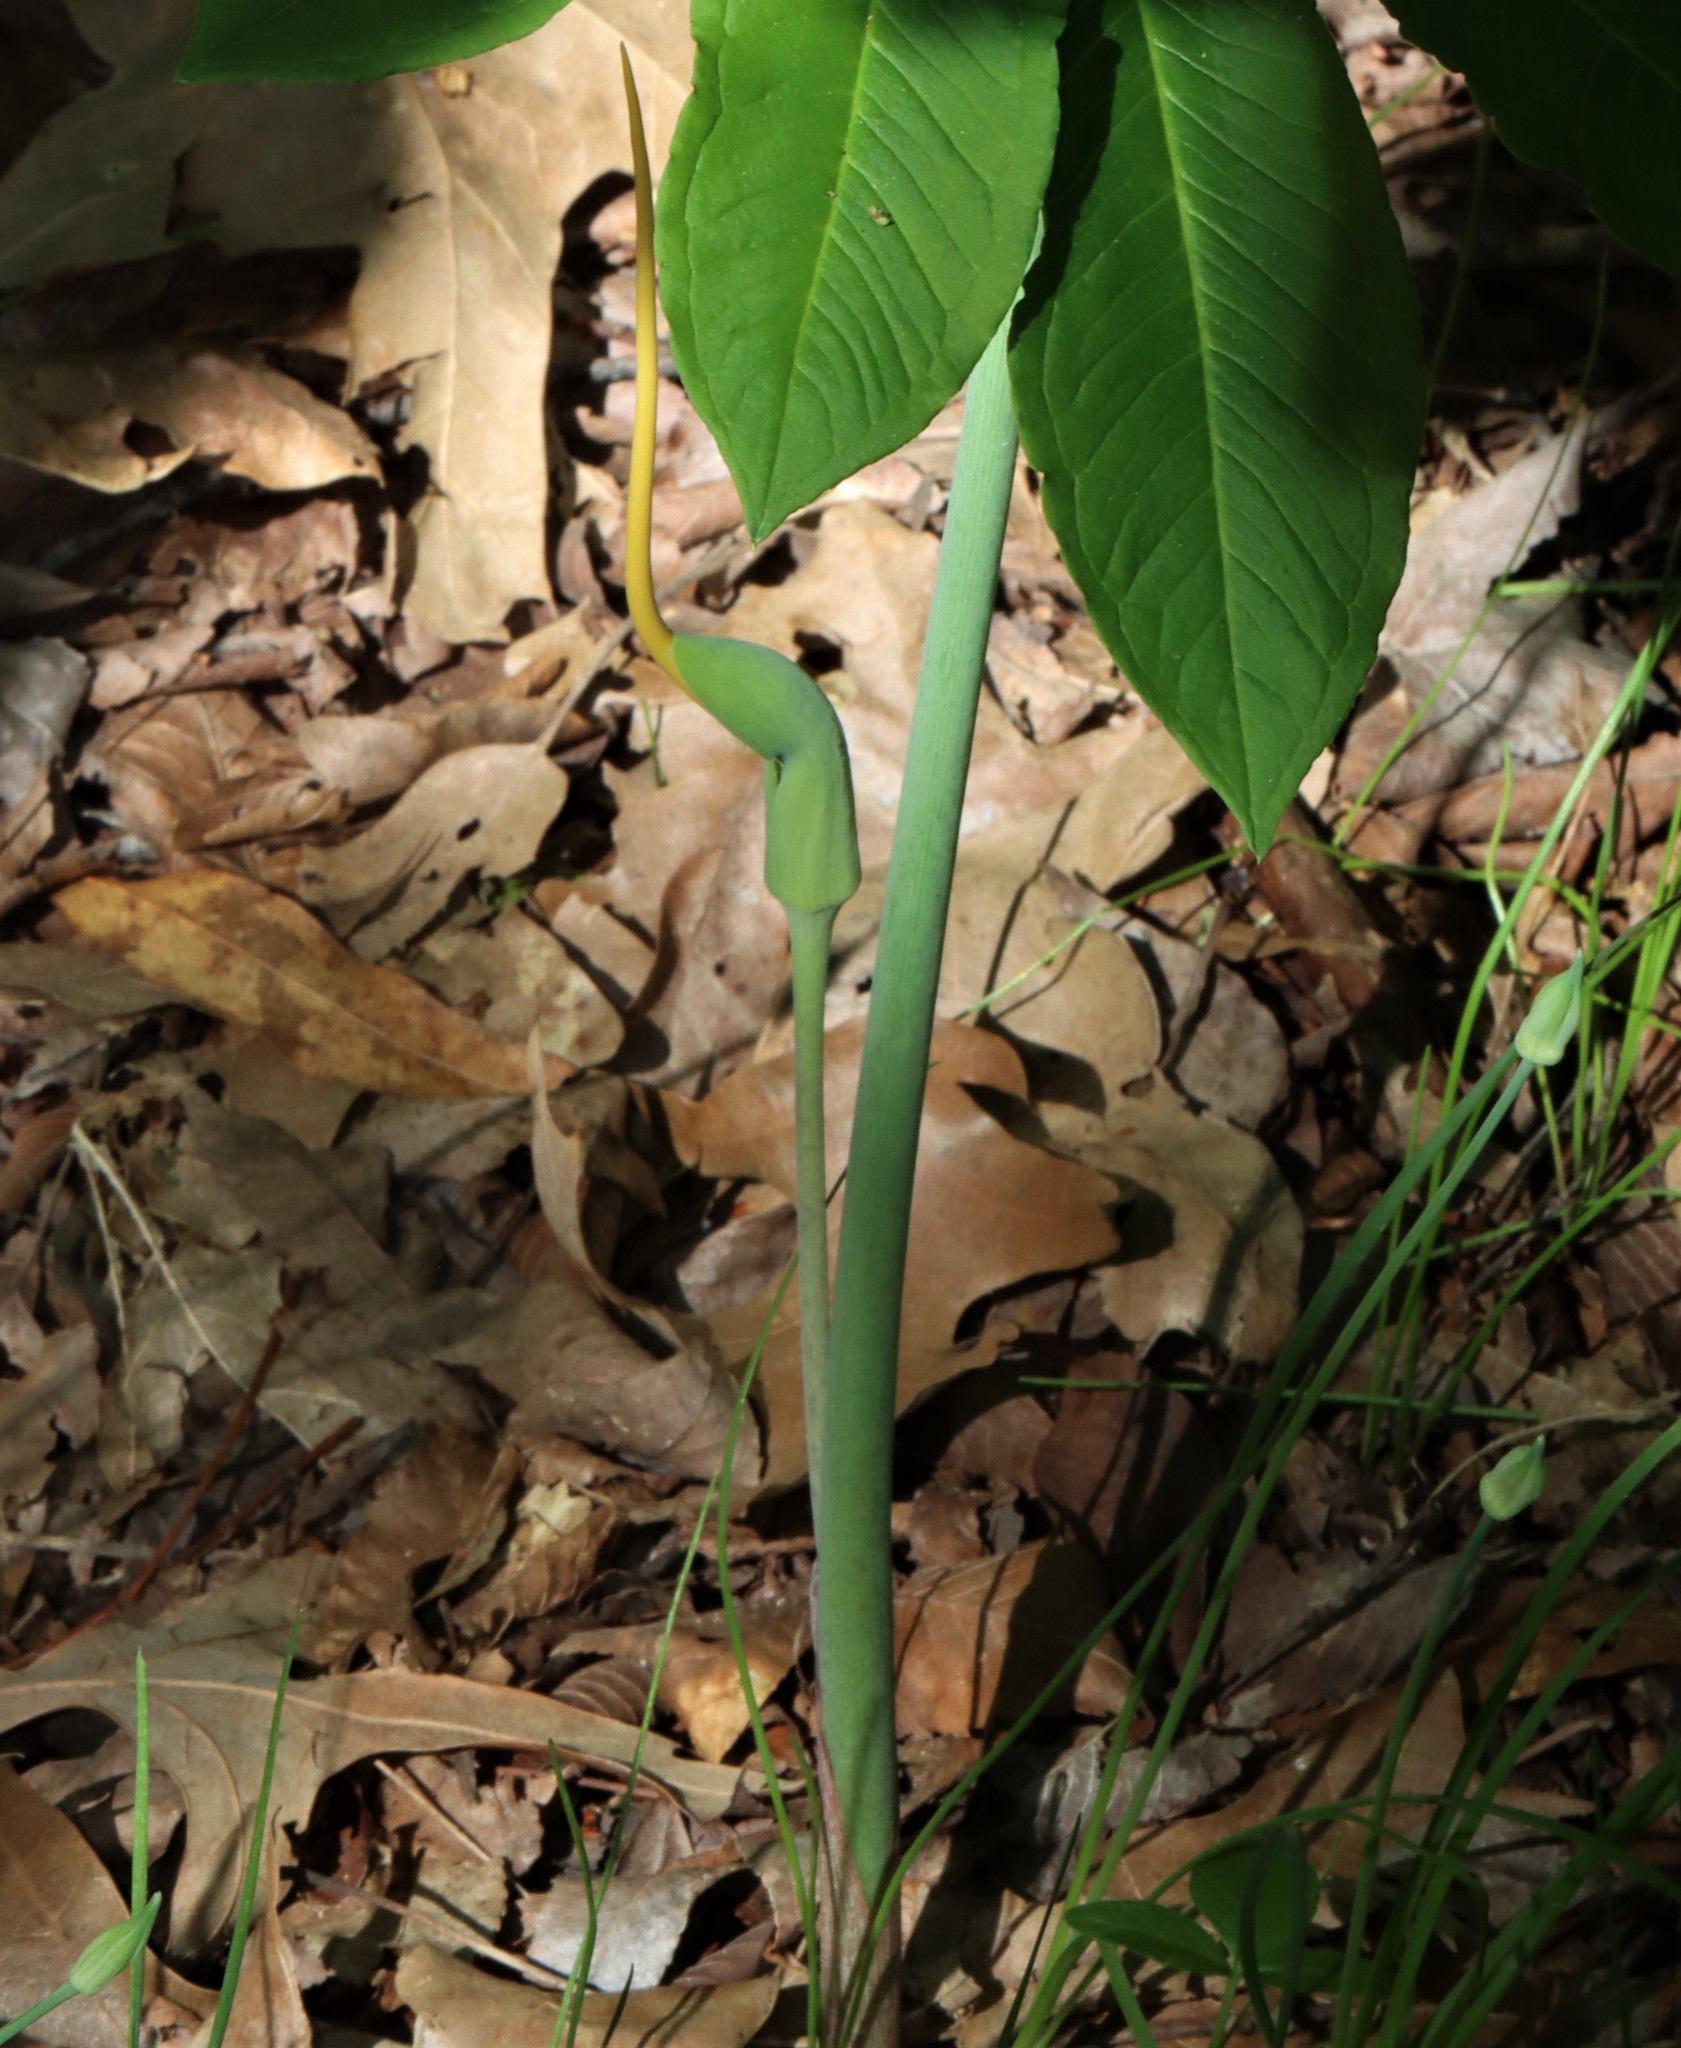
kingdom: Plantae
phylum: Tracheophyta
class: Liliopsida
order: Alismatales
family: Araceae
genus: Arisaema
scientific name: Arisaema dracontium
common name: Dragon-arum
